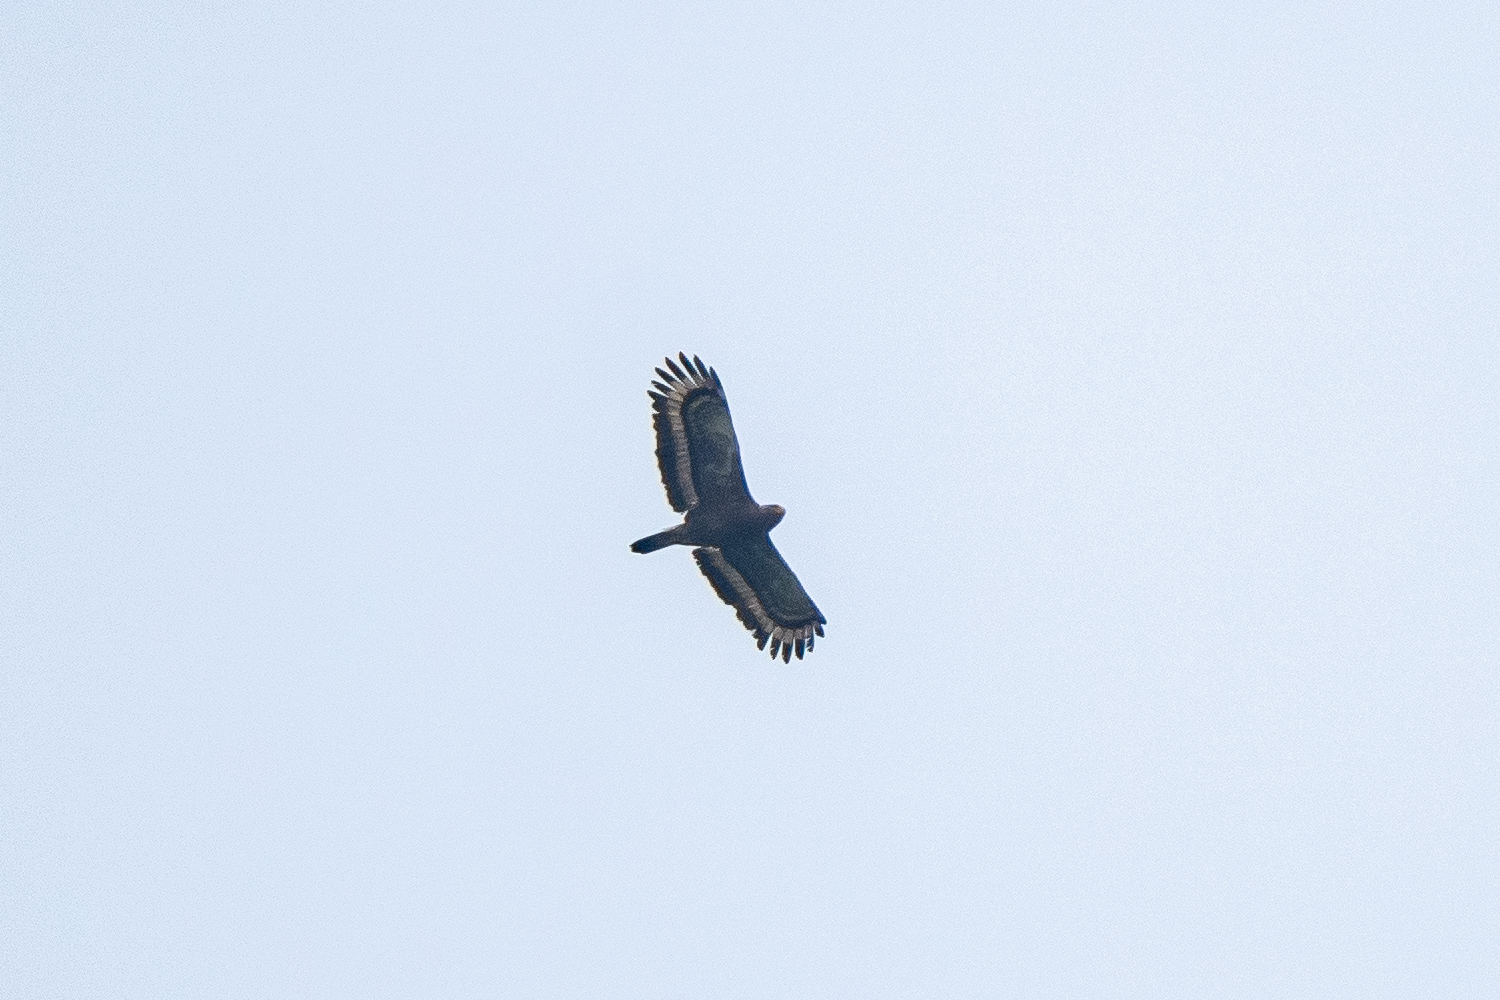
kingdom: Animalia
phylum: Chordata
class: Aves
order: Accipitriformes
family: Accipitridae
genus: Spilornis
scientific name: Spilornis cheela
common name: Crested serpent eagle
